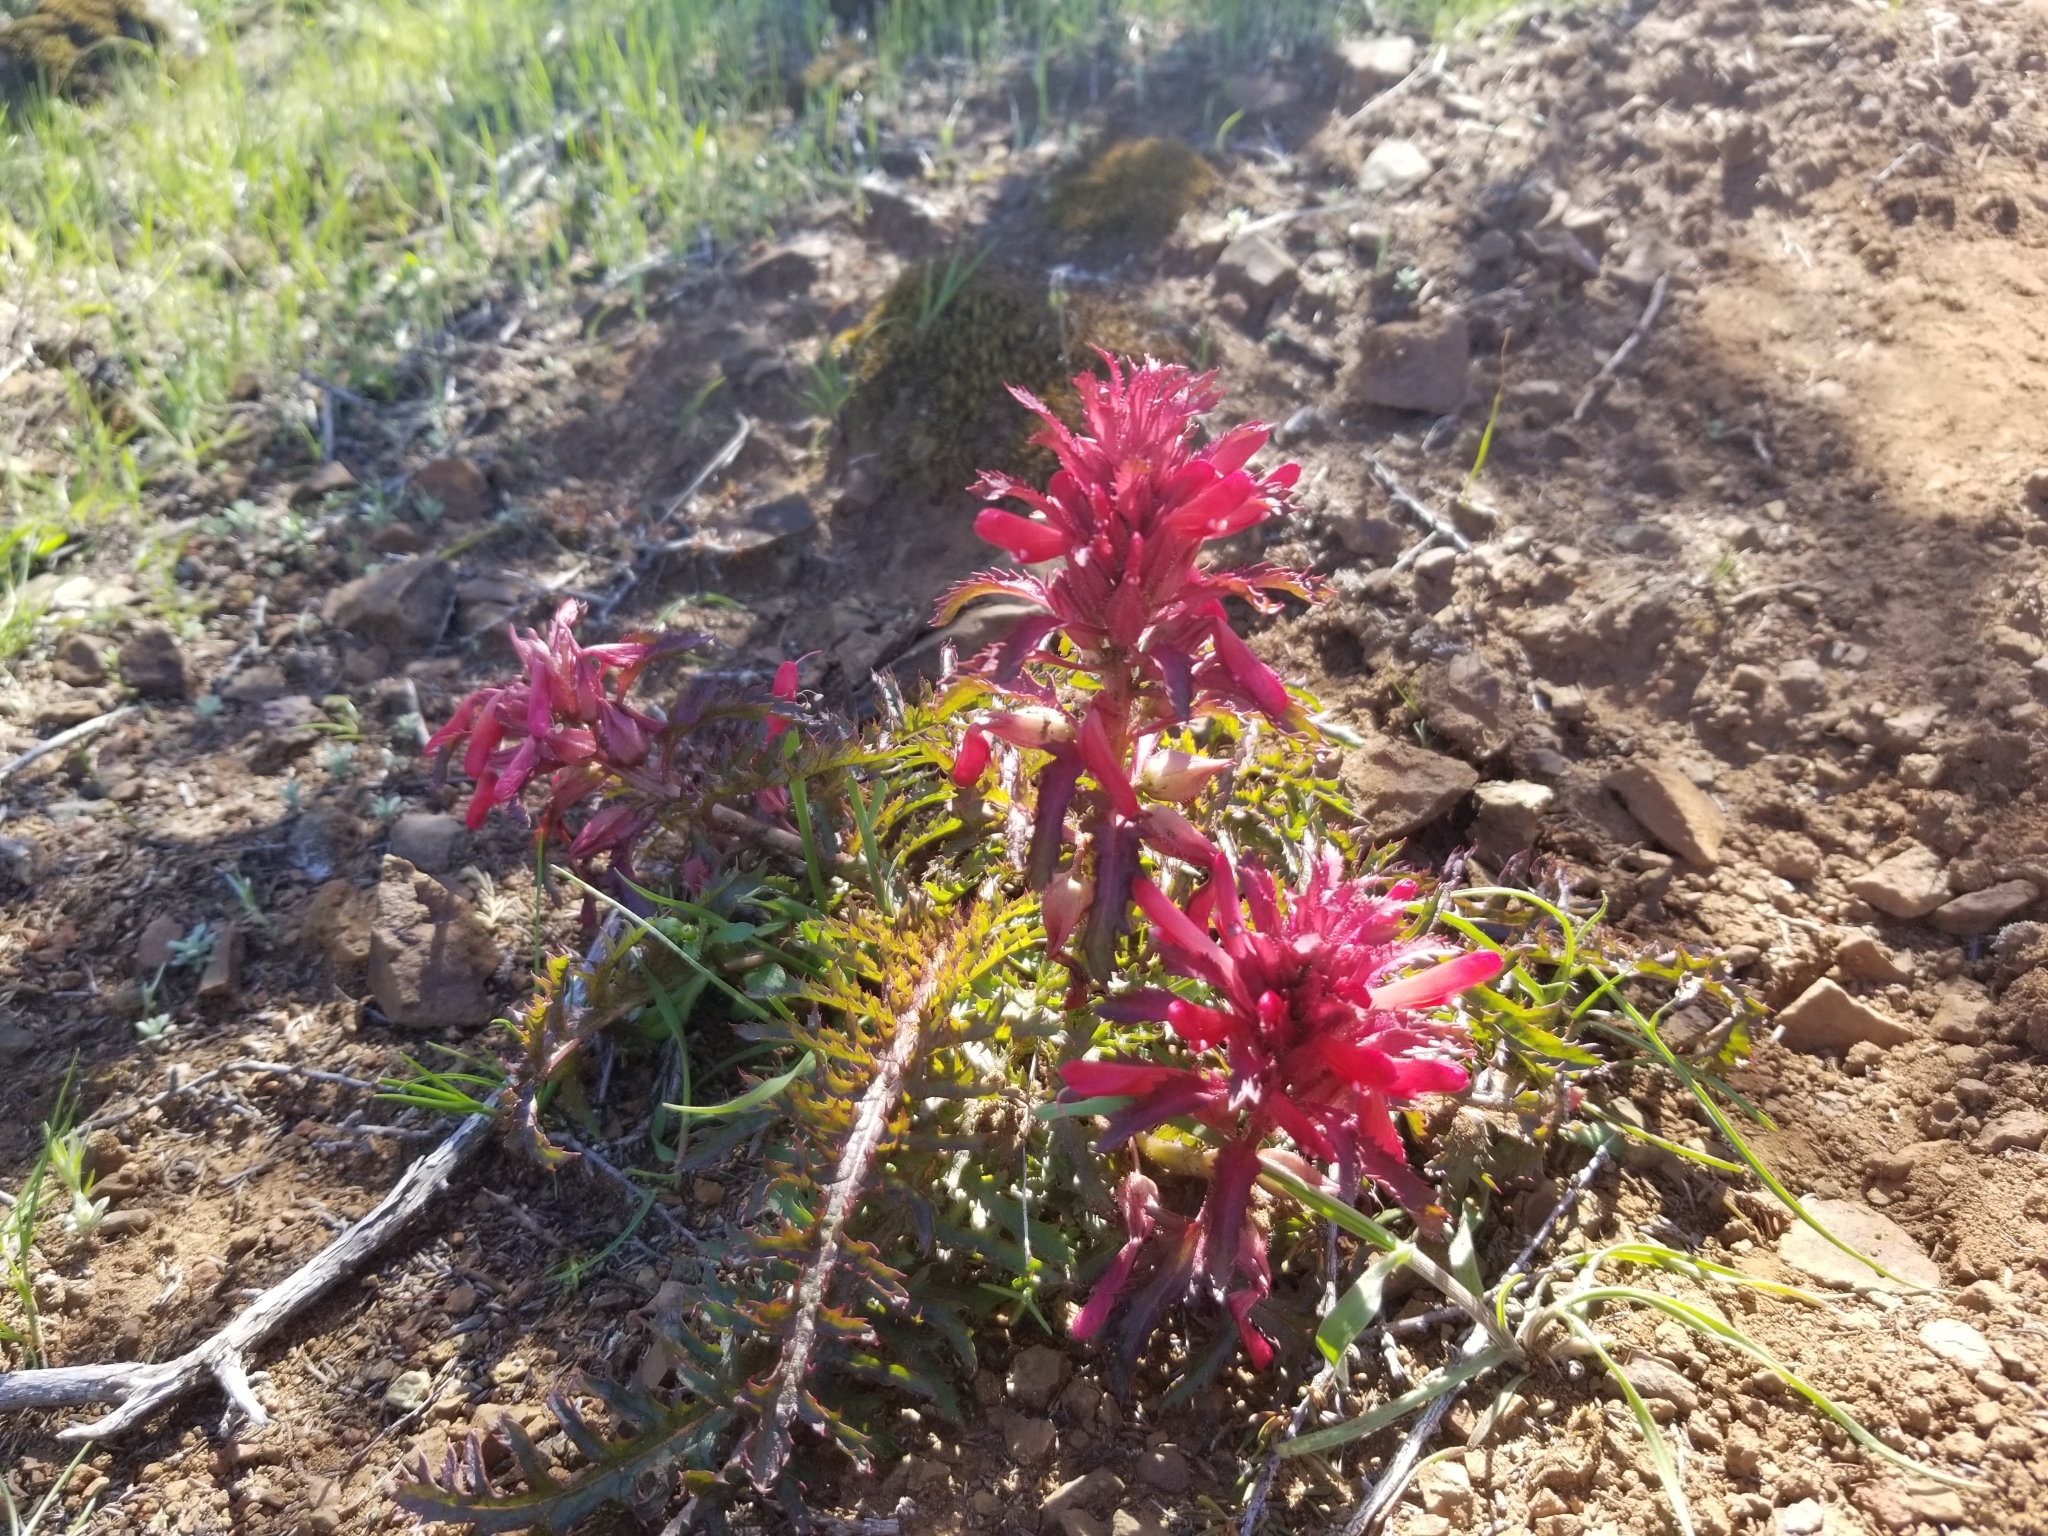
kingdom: Plantae
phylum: Tracheophyta
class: Magnoliopsida
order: Lamiales
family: Orobanchaceae
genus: Pedicularis
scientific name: Pedicularis densiflora
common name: Indian warrior
